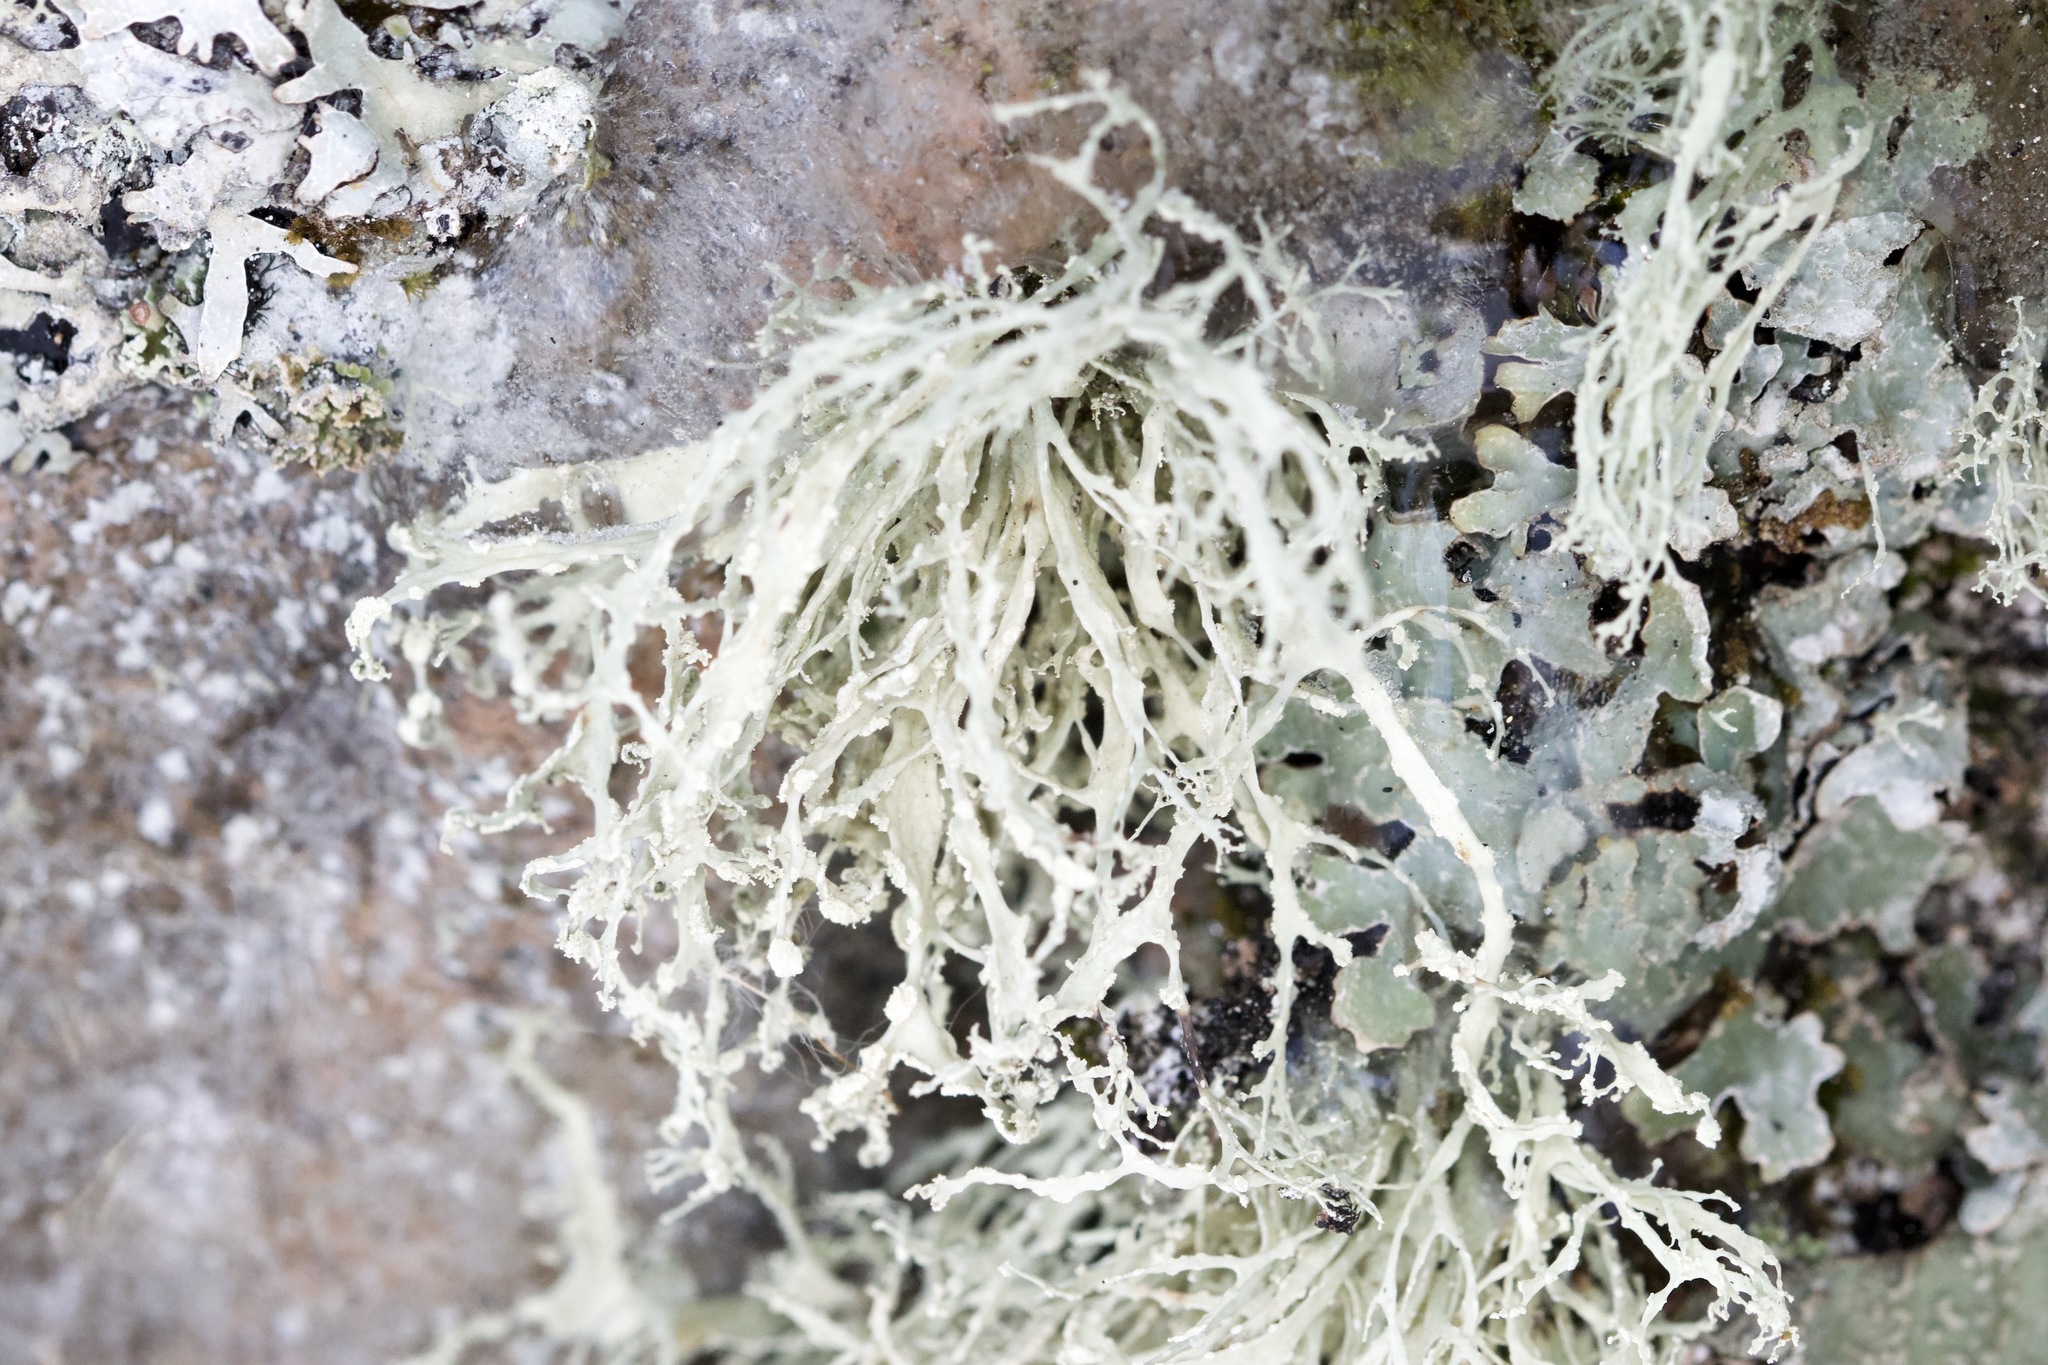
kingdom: Fungi
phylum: Ascomycota
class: Lecanoromycetes
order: Lecanorales
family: Ramalinaceae
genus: Ramalina
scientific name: Ramalina intermedia
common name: Rock bushy lichen
